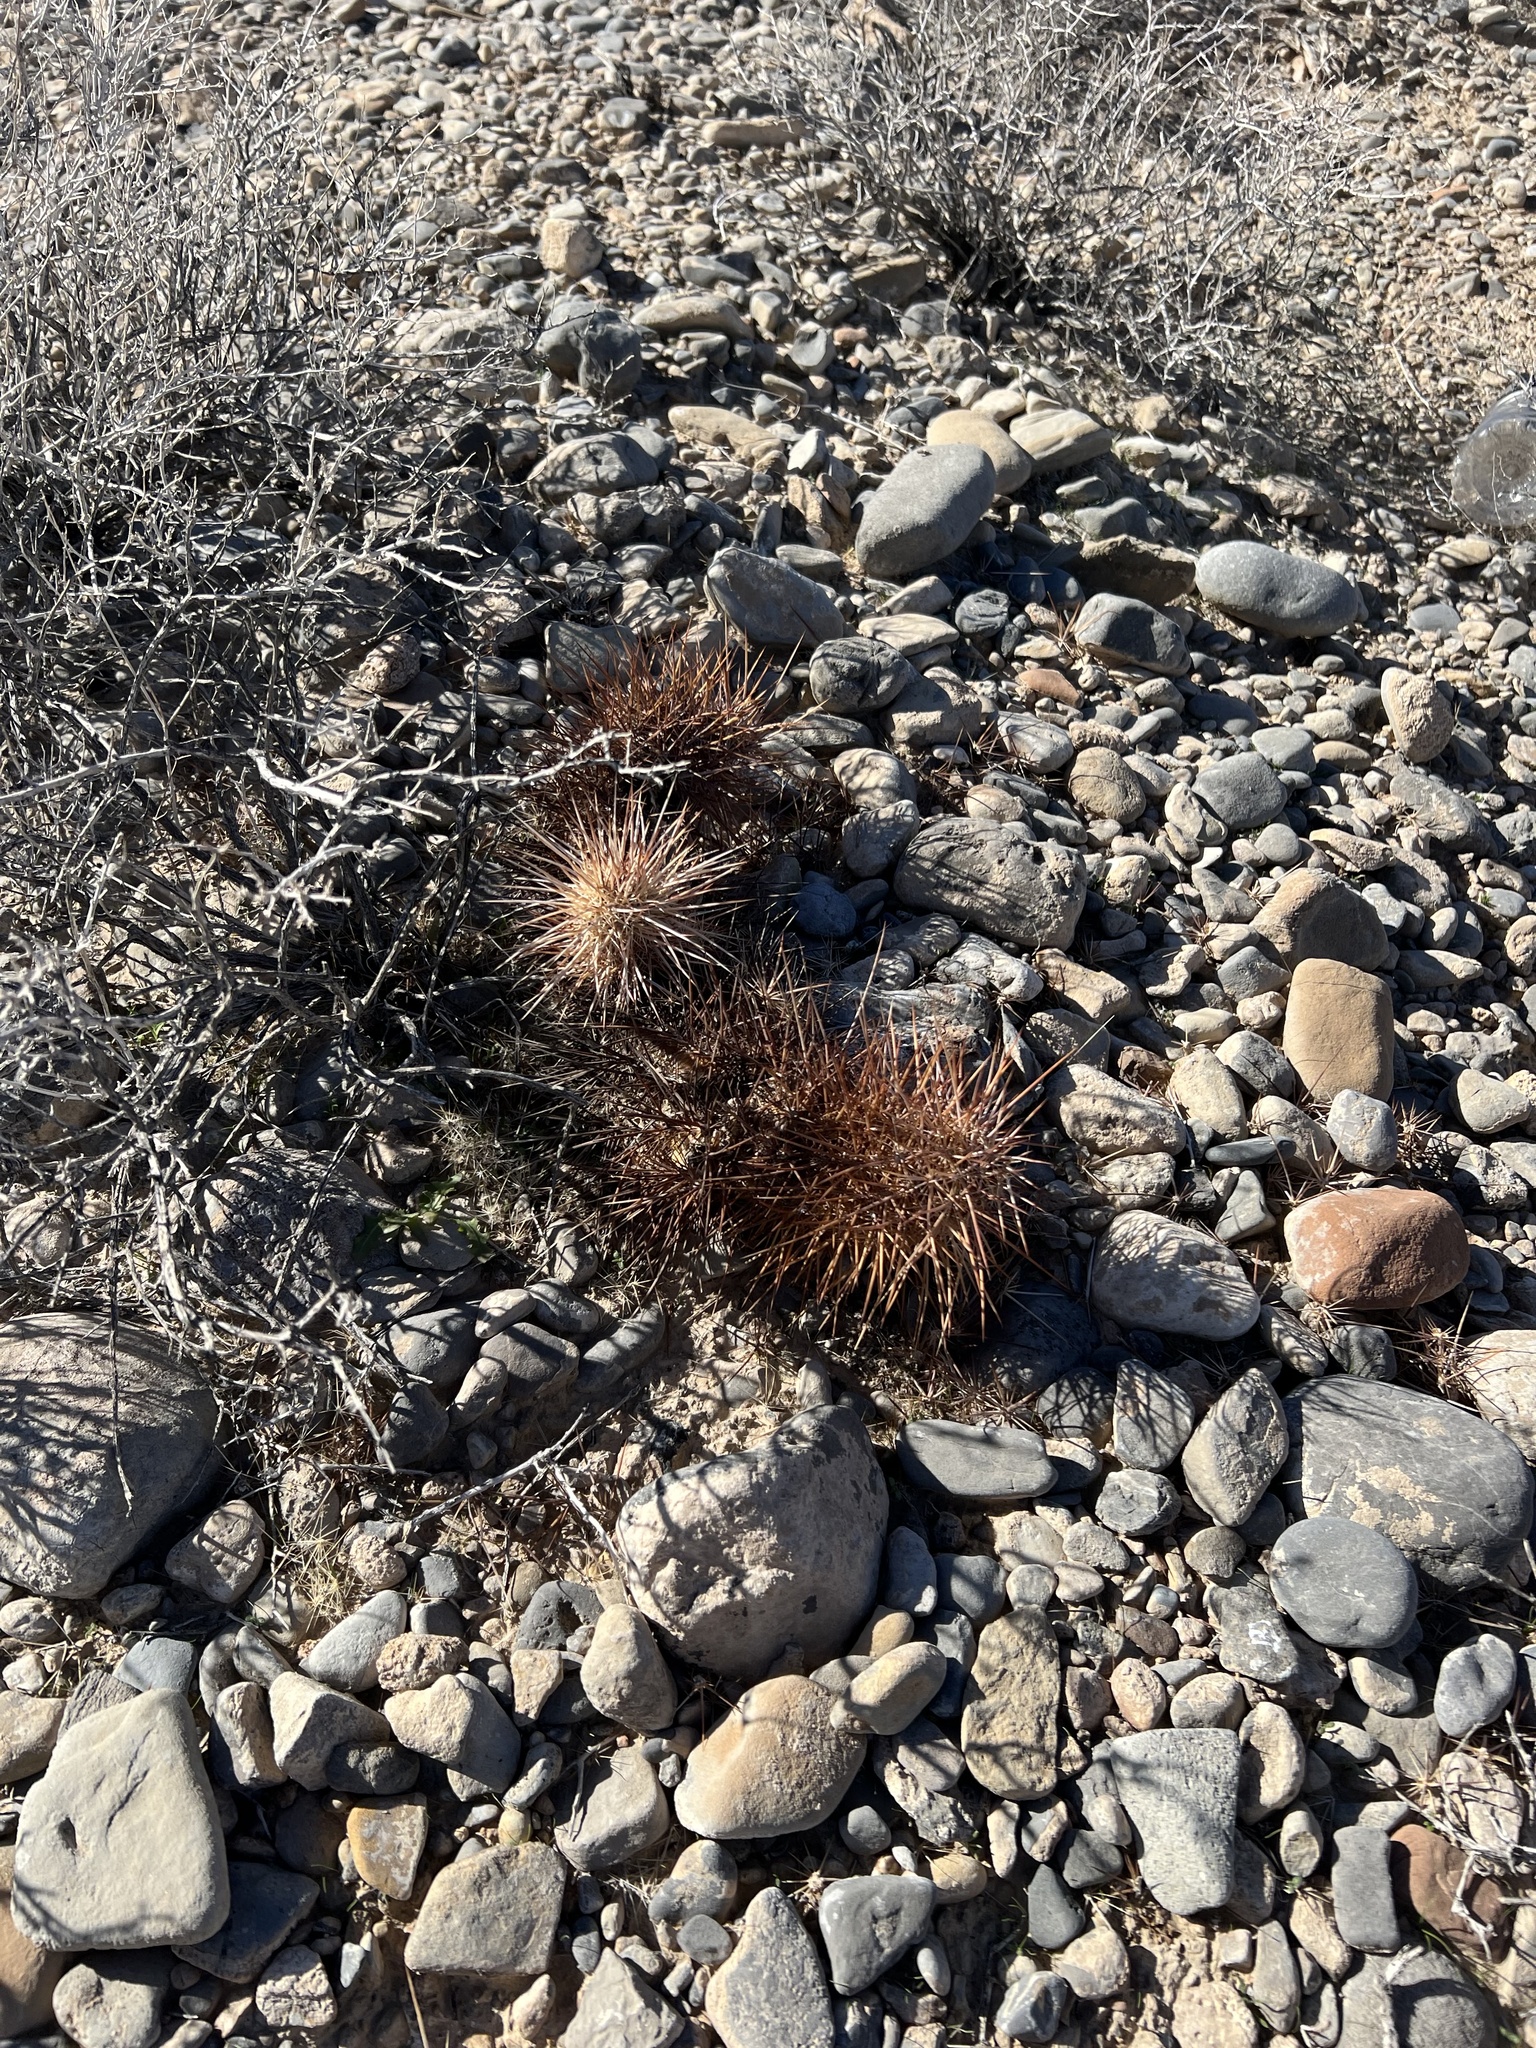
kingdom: Plantae
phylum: Tracheophyta
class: Magnoliopsida
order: Caryophyllales
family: Cactaceae
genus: Echinocereus
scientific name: Echinocereus engelmannii
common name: Engelmann's hedgehog cactus
